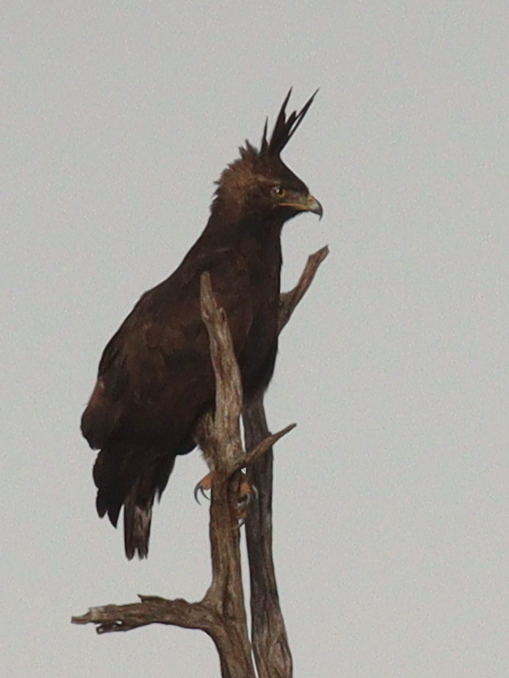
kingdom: Animalia
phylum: Chordata
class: Aves
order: Accipitriformes
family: Accipitridae
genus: Lophaetus
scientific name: Lophaetus occipitalis
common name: Long-crested eagle
